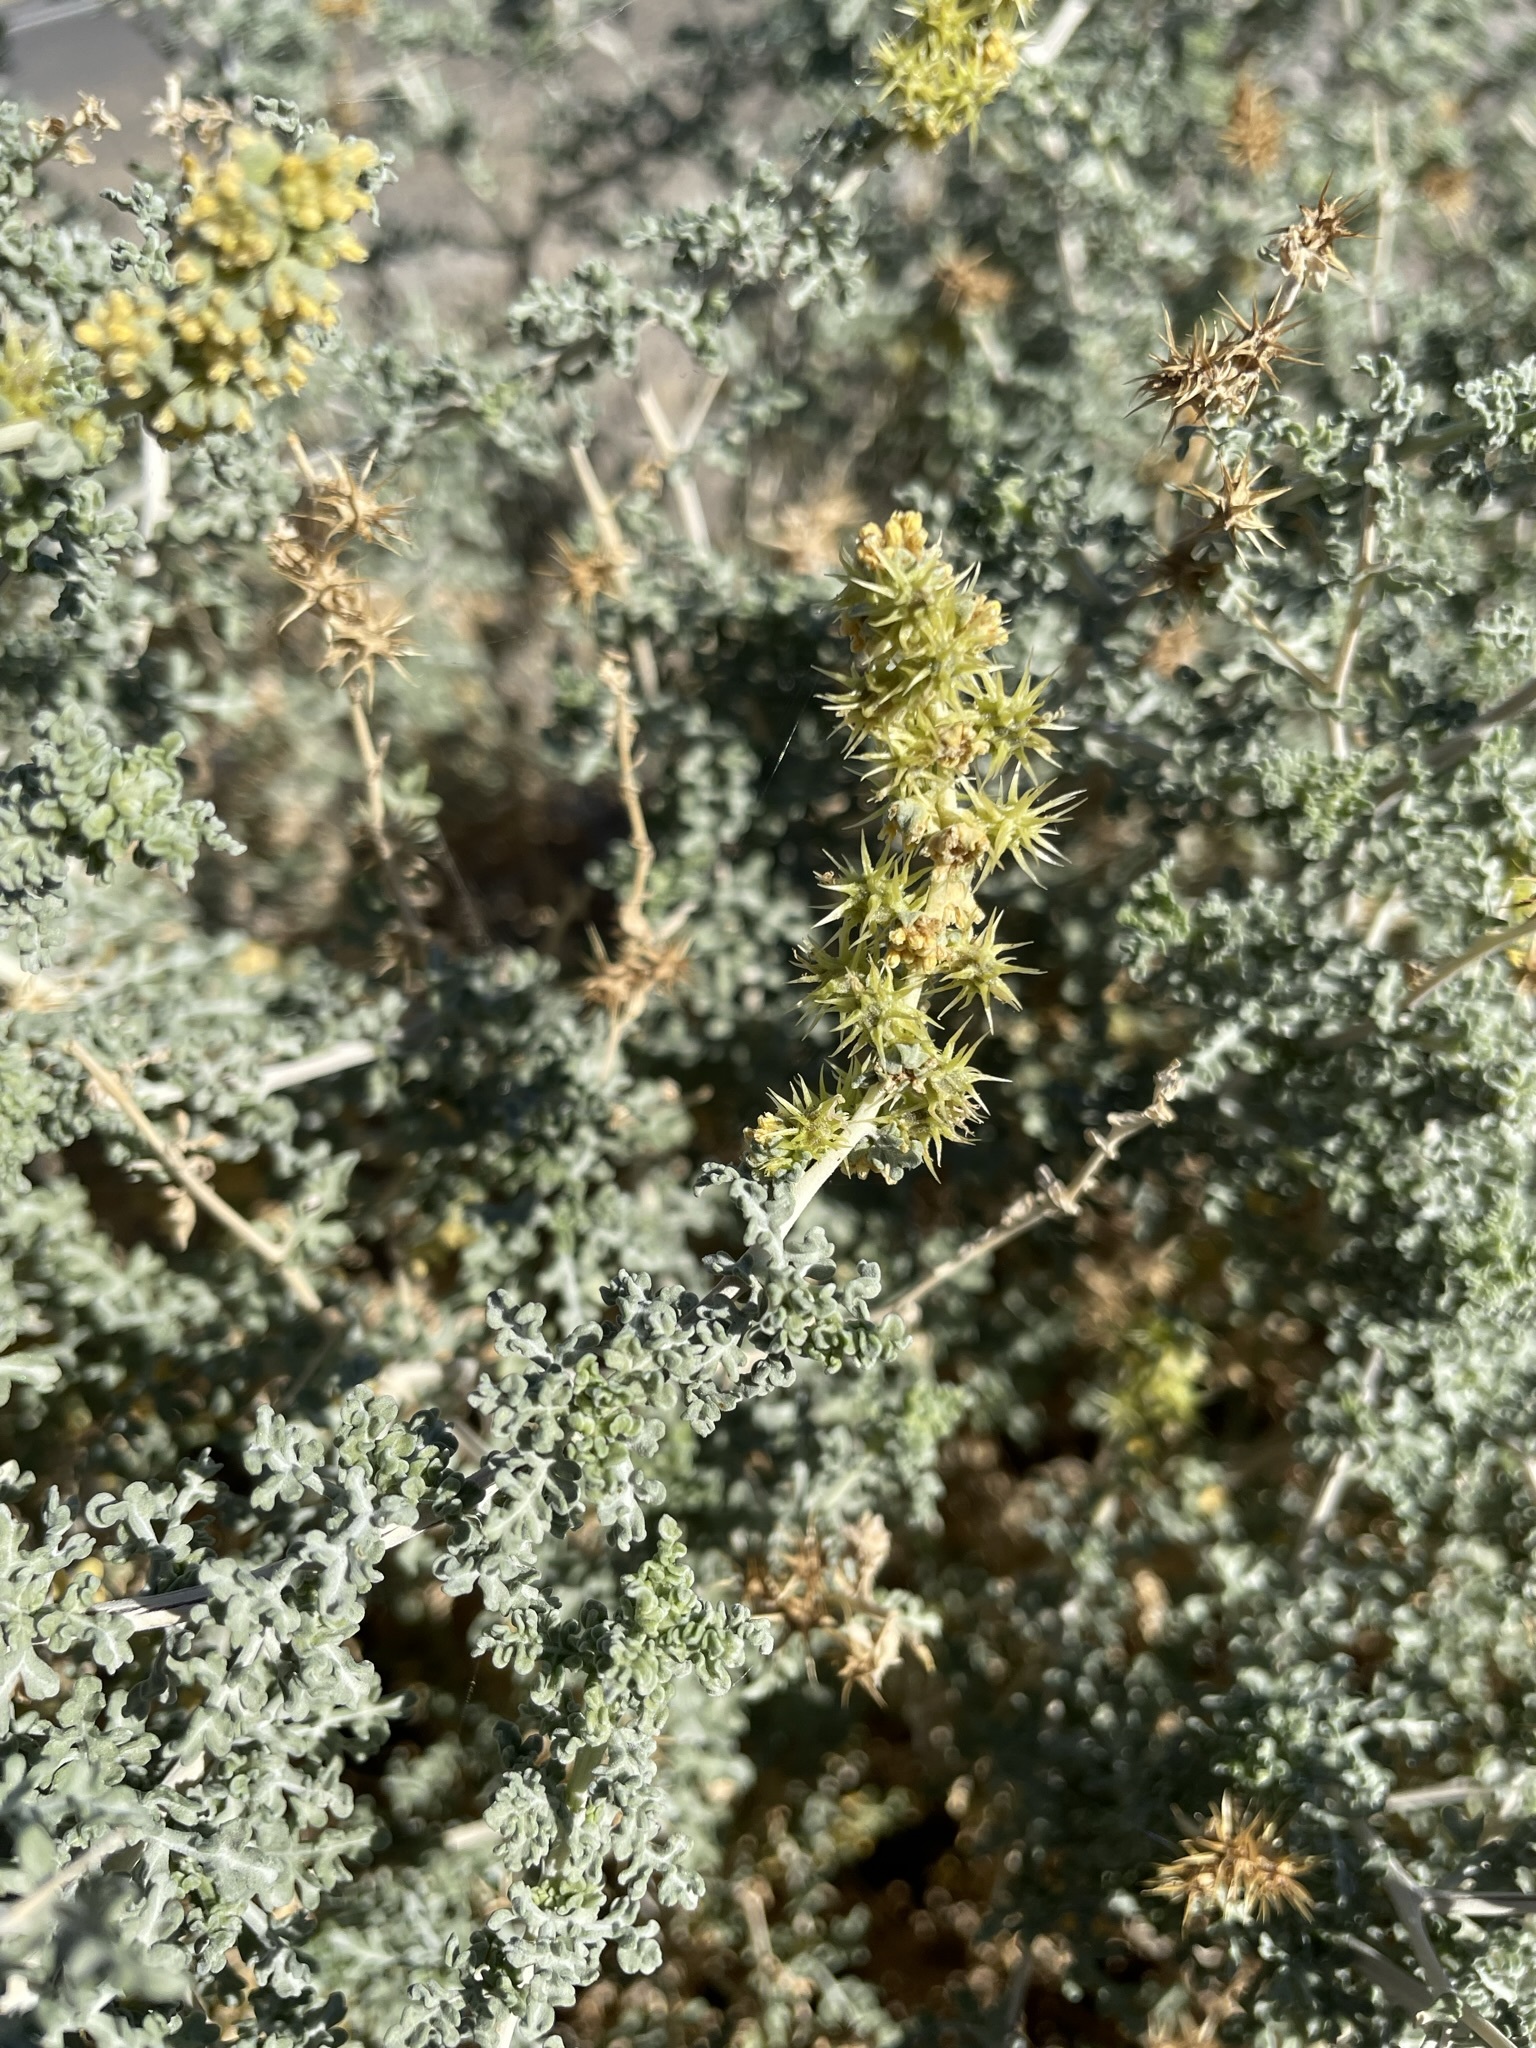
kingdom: Plantae
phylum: Tracheophyta
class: Magnoliopsida
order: Asterales
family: Asteraceae
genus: Ambrosia
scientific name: Ambrosia dumosa
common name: Bur-sage
